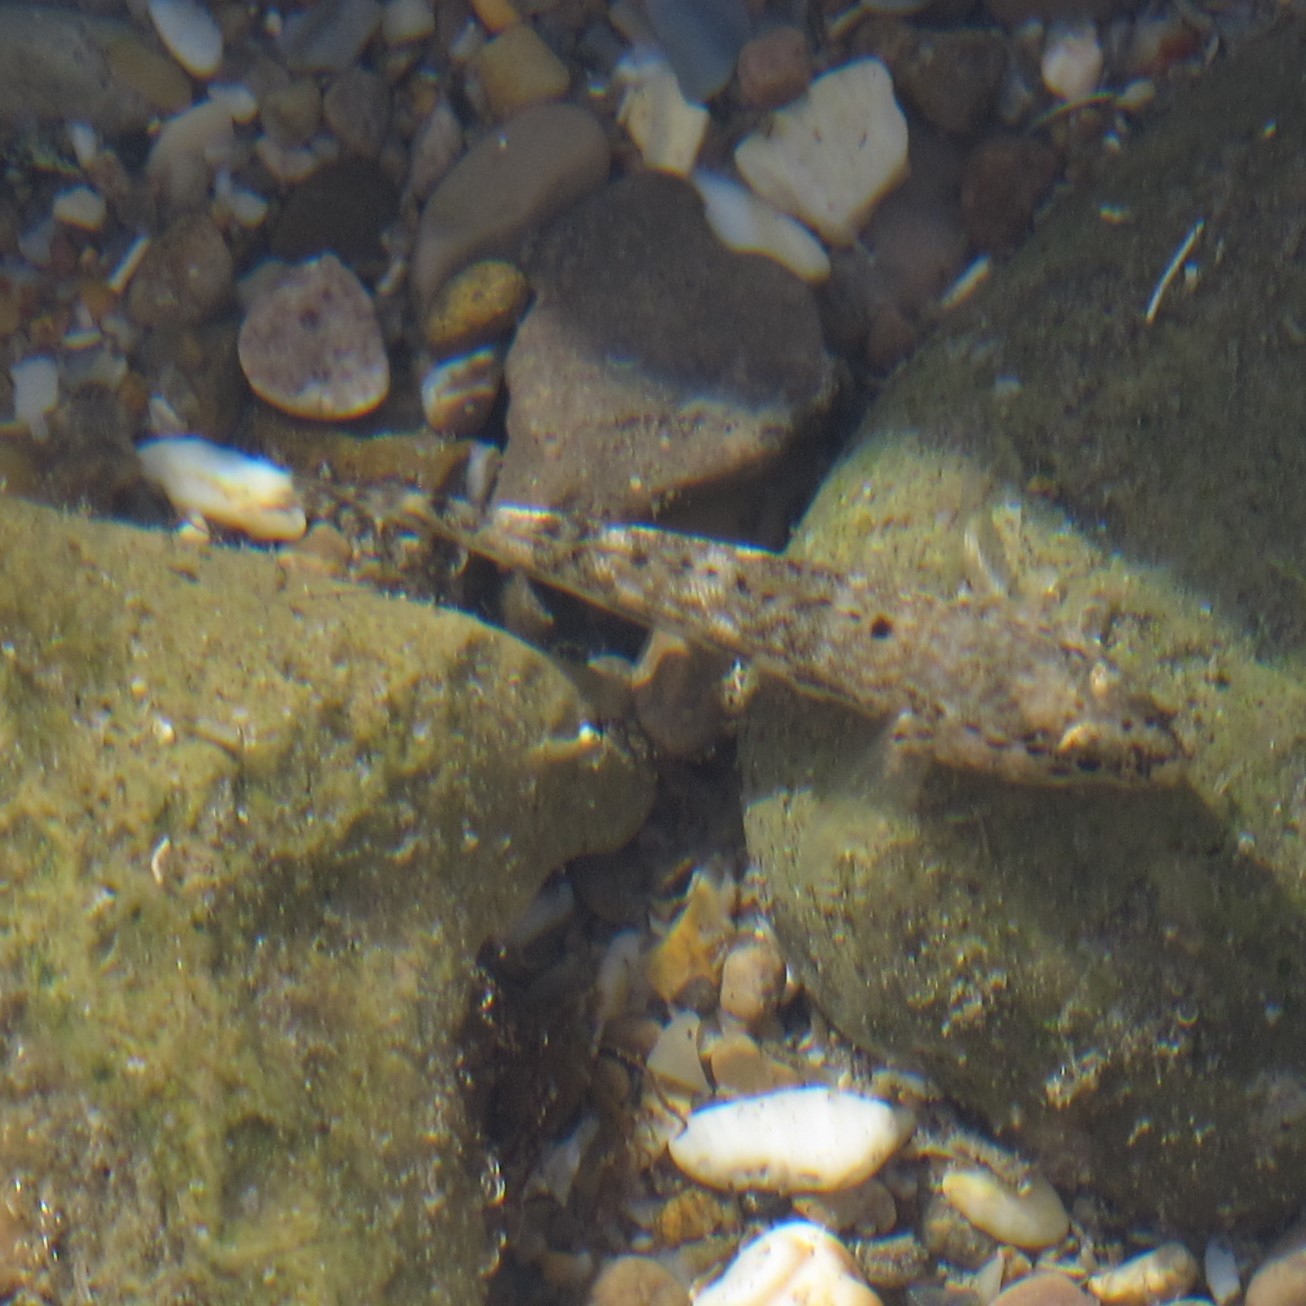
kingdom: Animalia
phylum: Chordata
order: Perciformes
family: Gobiidae
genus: Gobius
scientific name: Gobius cobitis
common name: Giant goby
